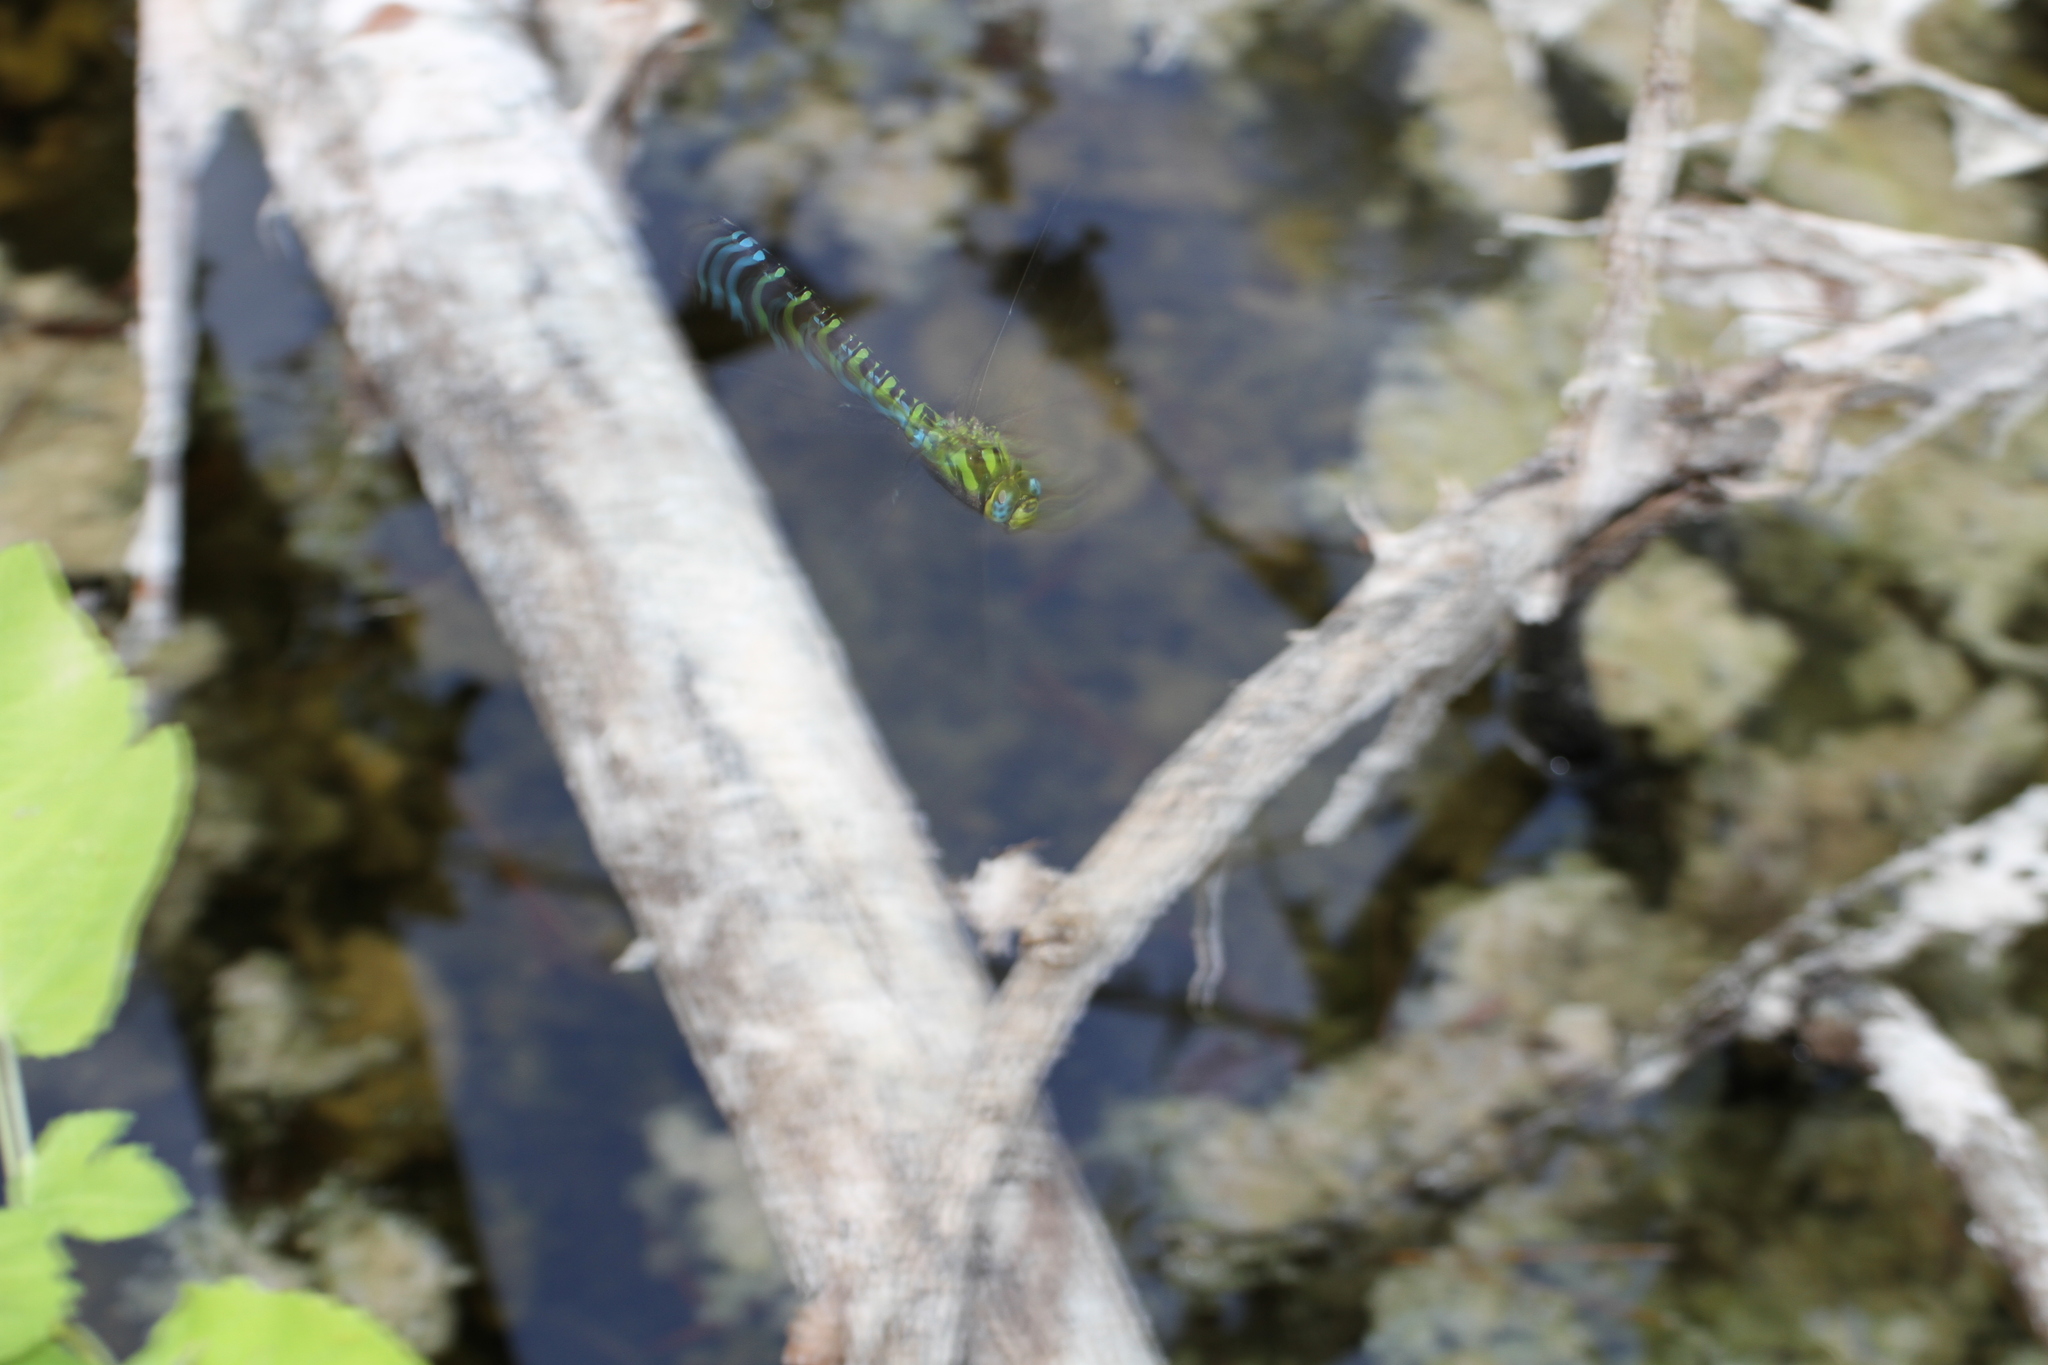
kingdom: Animalia
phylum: Arthropoda
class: Insecta
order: Odonata
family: Aeshnidae
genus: Aeshna
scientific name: Aeshna cyanea
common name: Southern hawker
